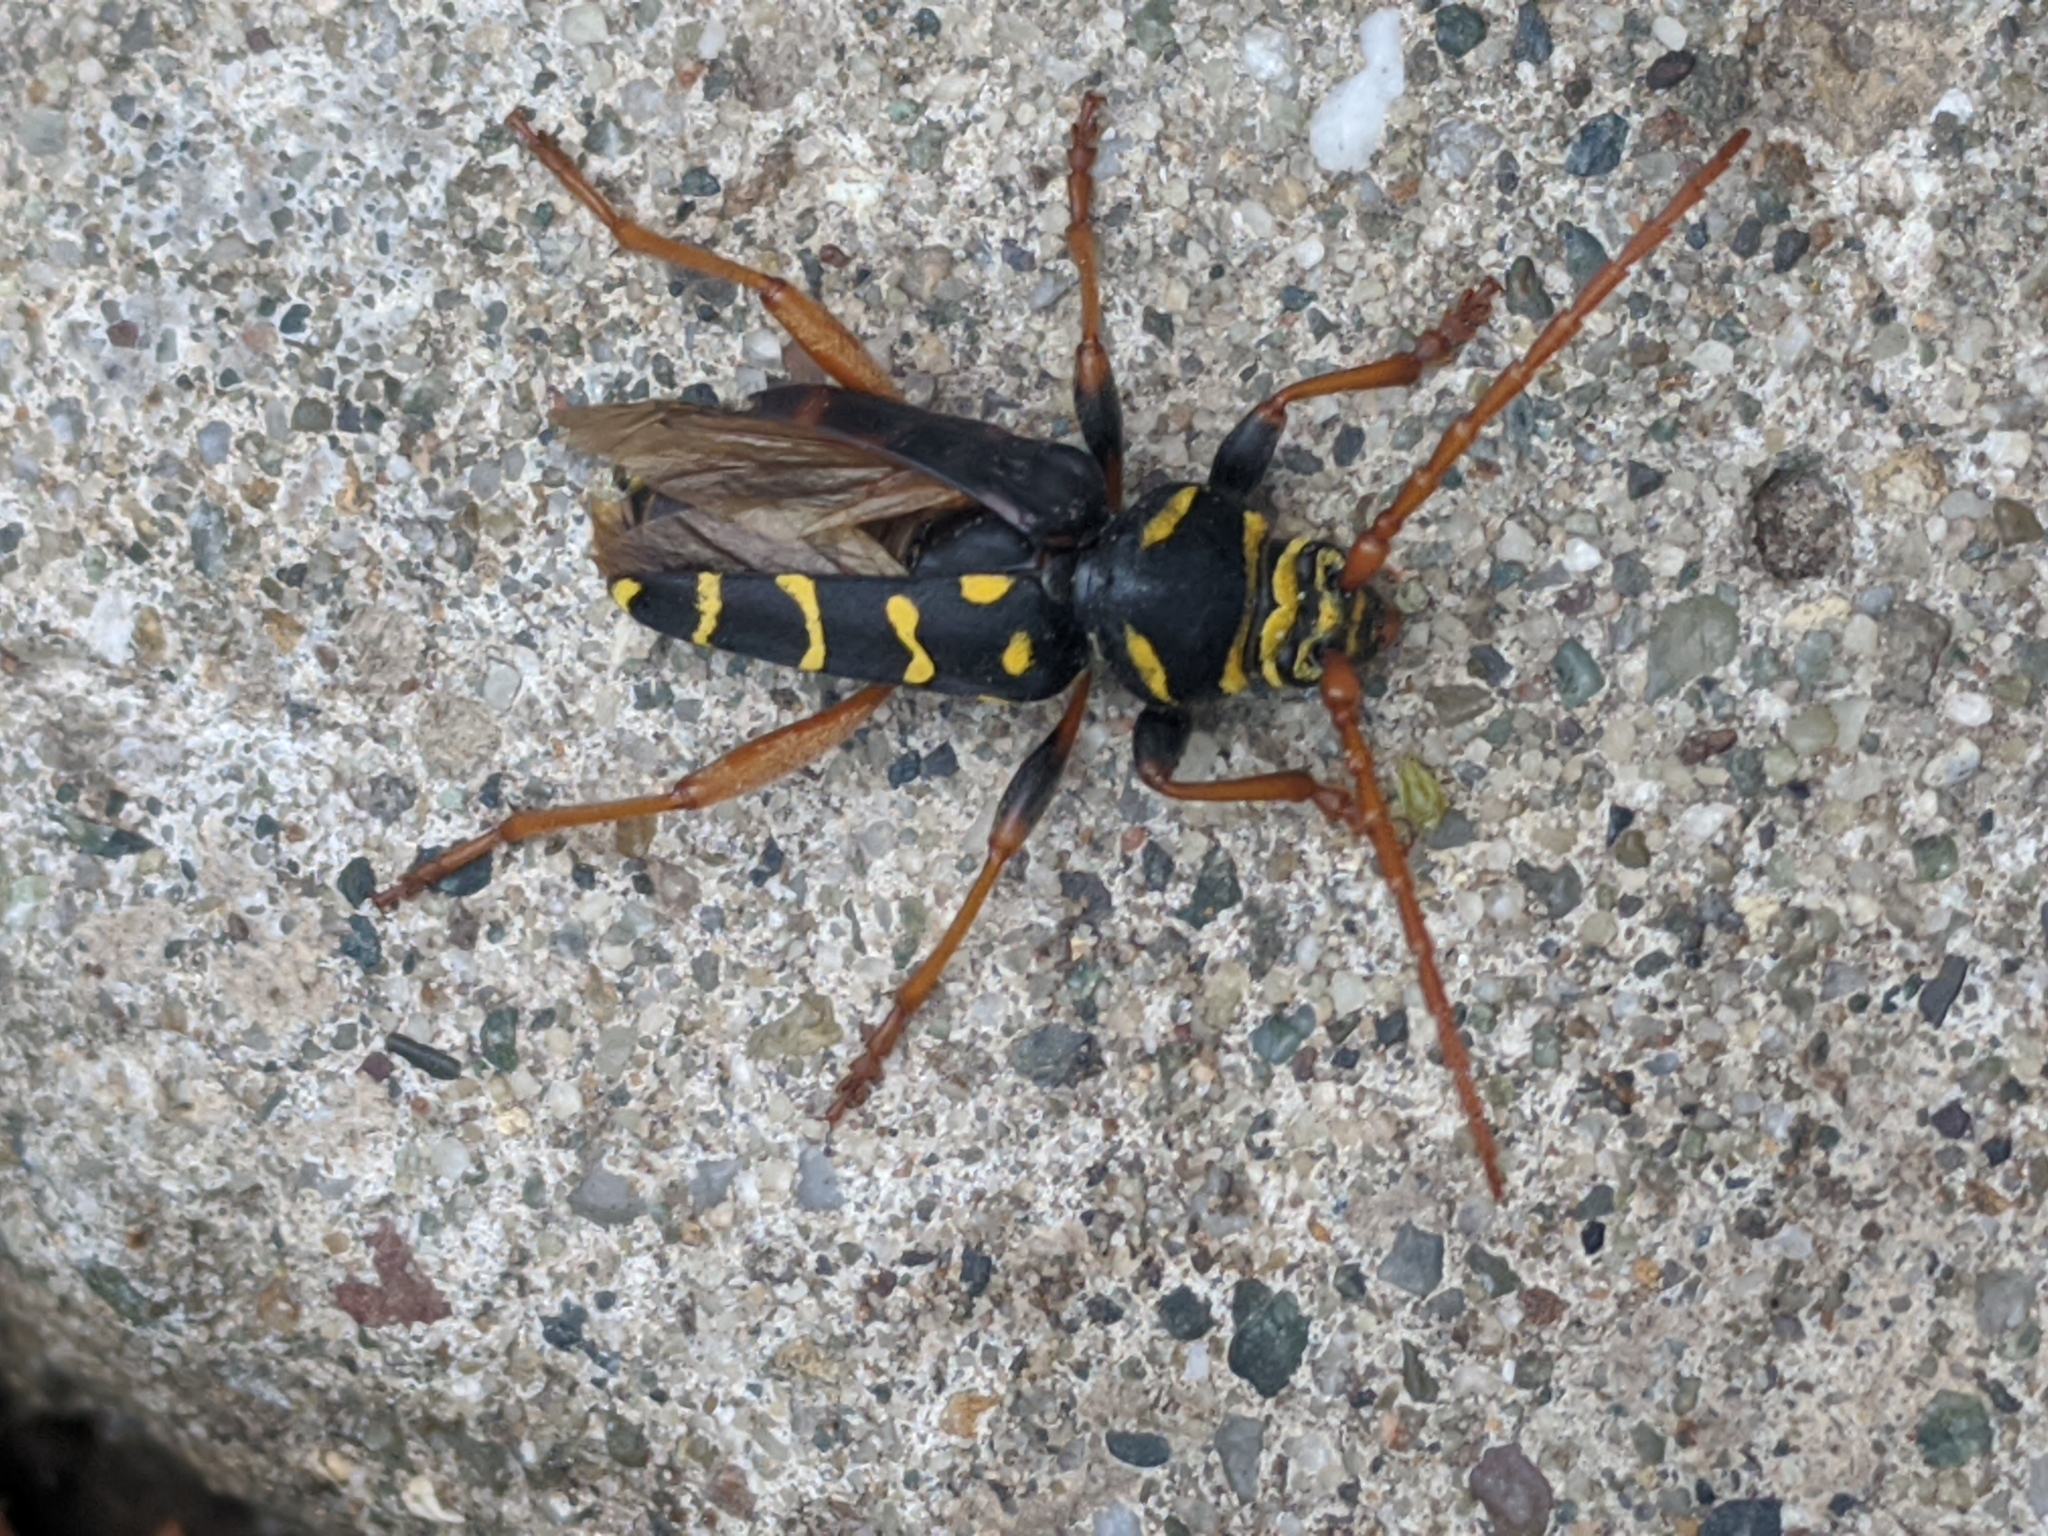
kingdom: Animalia
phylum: Arthropoda
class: Insecta
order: Coleoptera
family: Cerambycidae
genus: Plagionotus
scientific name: Plagionotus arcuatus
